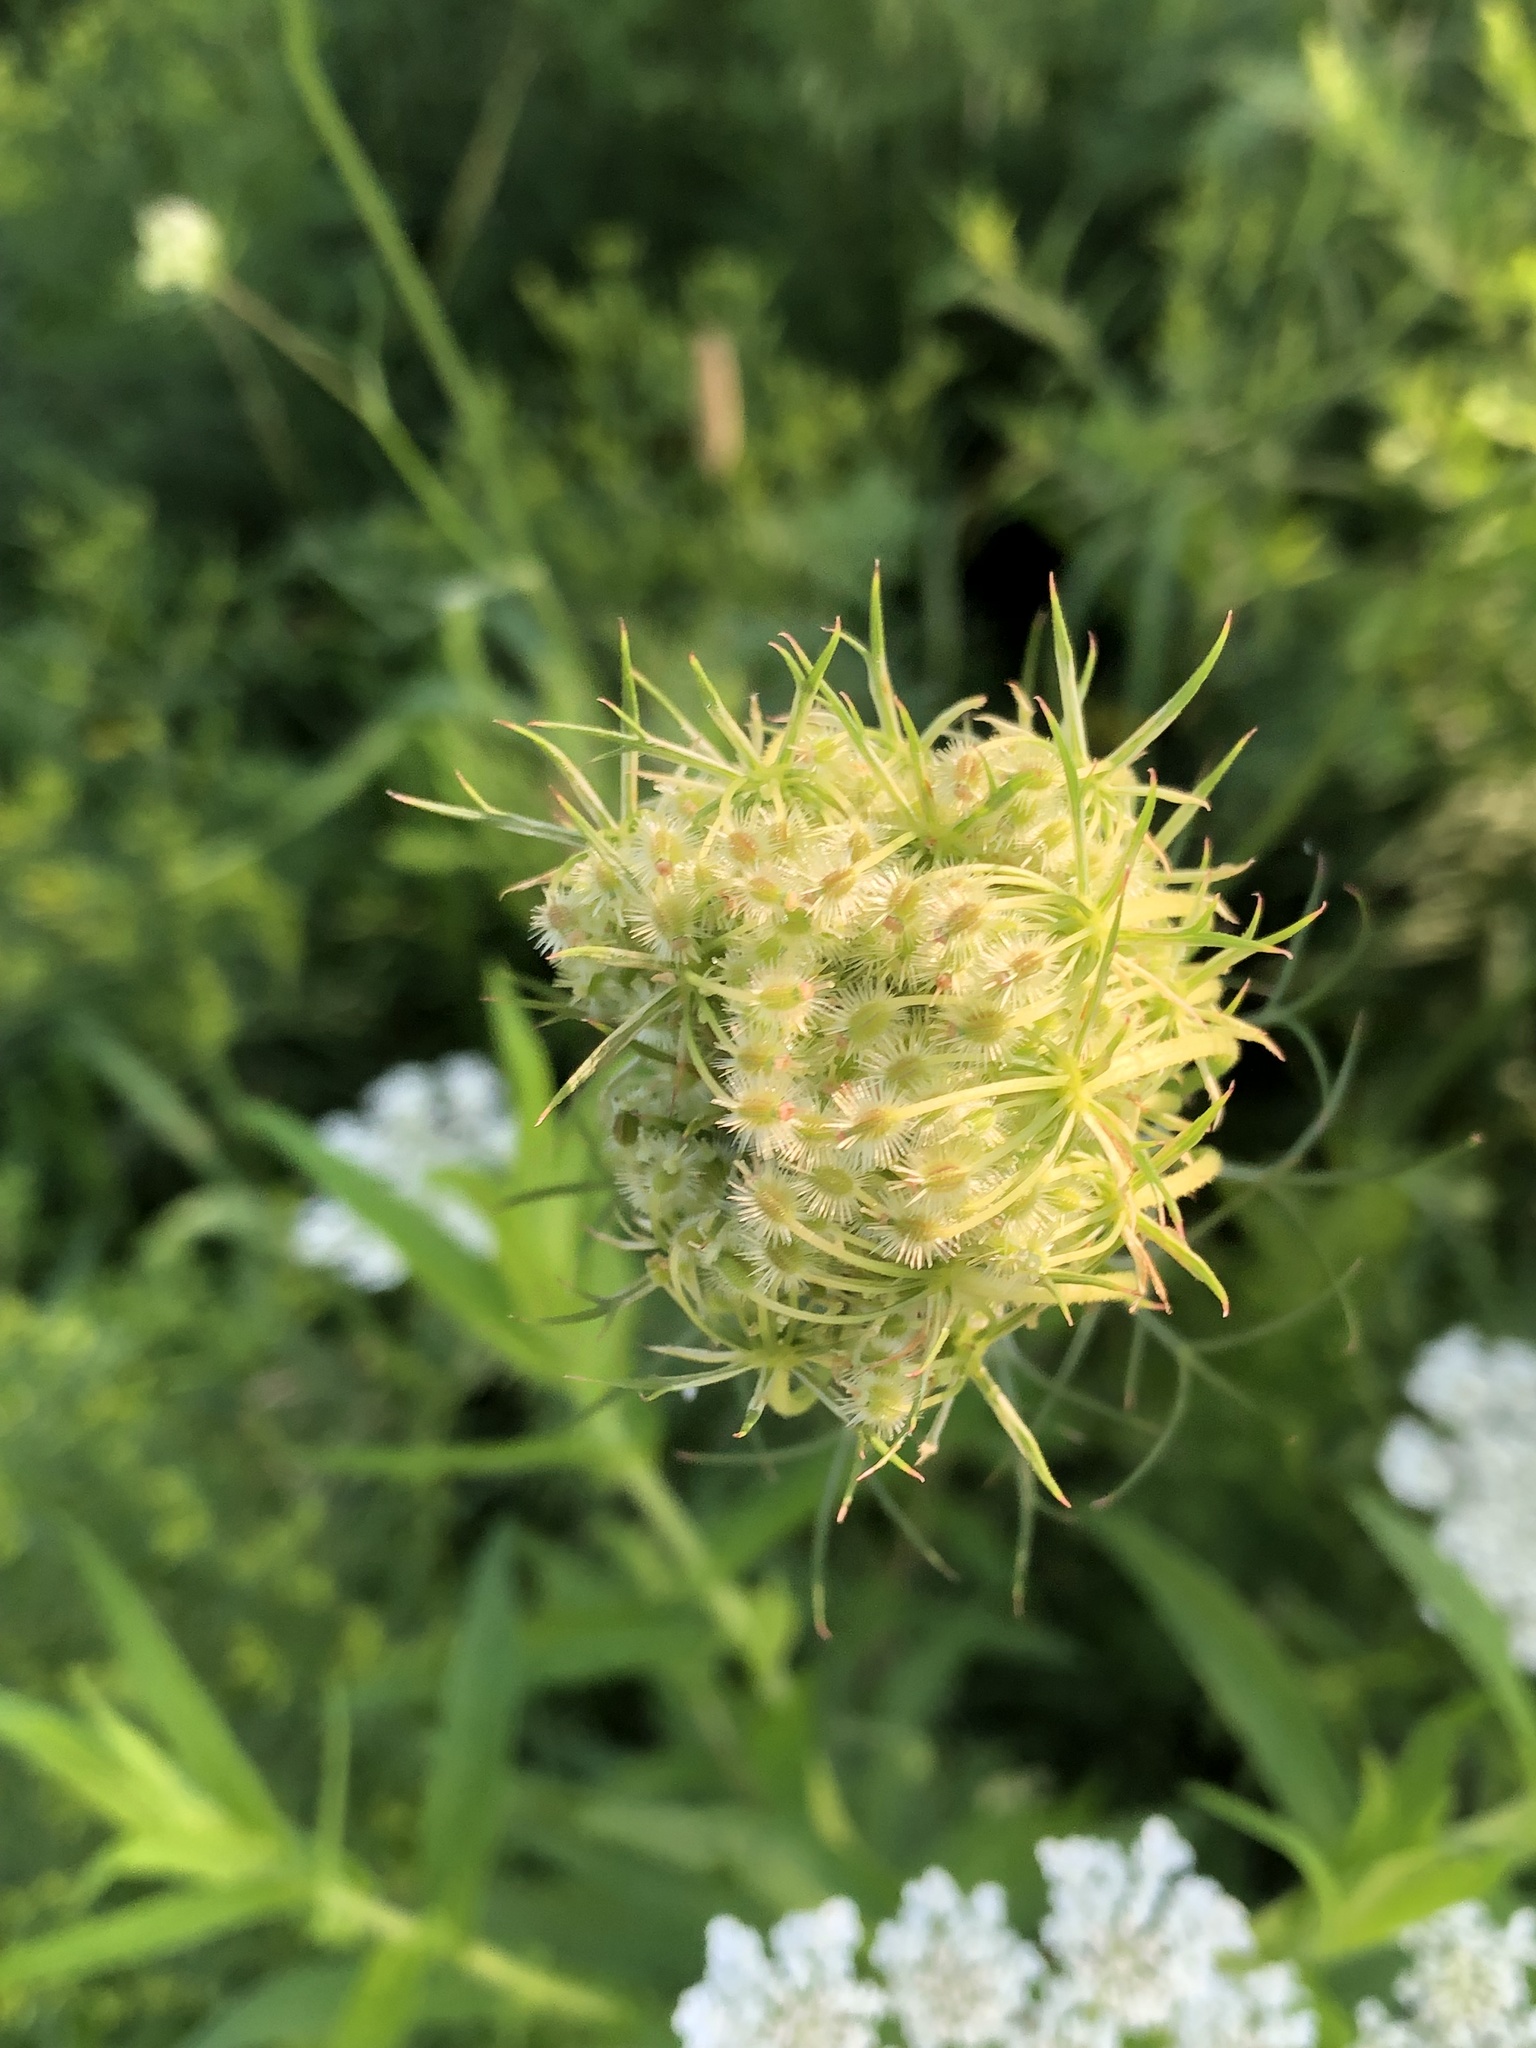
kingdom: Plantae
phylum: Tracheophyta
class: Magnoliopsida
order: Apiales
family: Apiaceae
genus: Daucus
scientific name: Daucus carota
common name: Wild carrot
